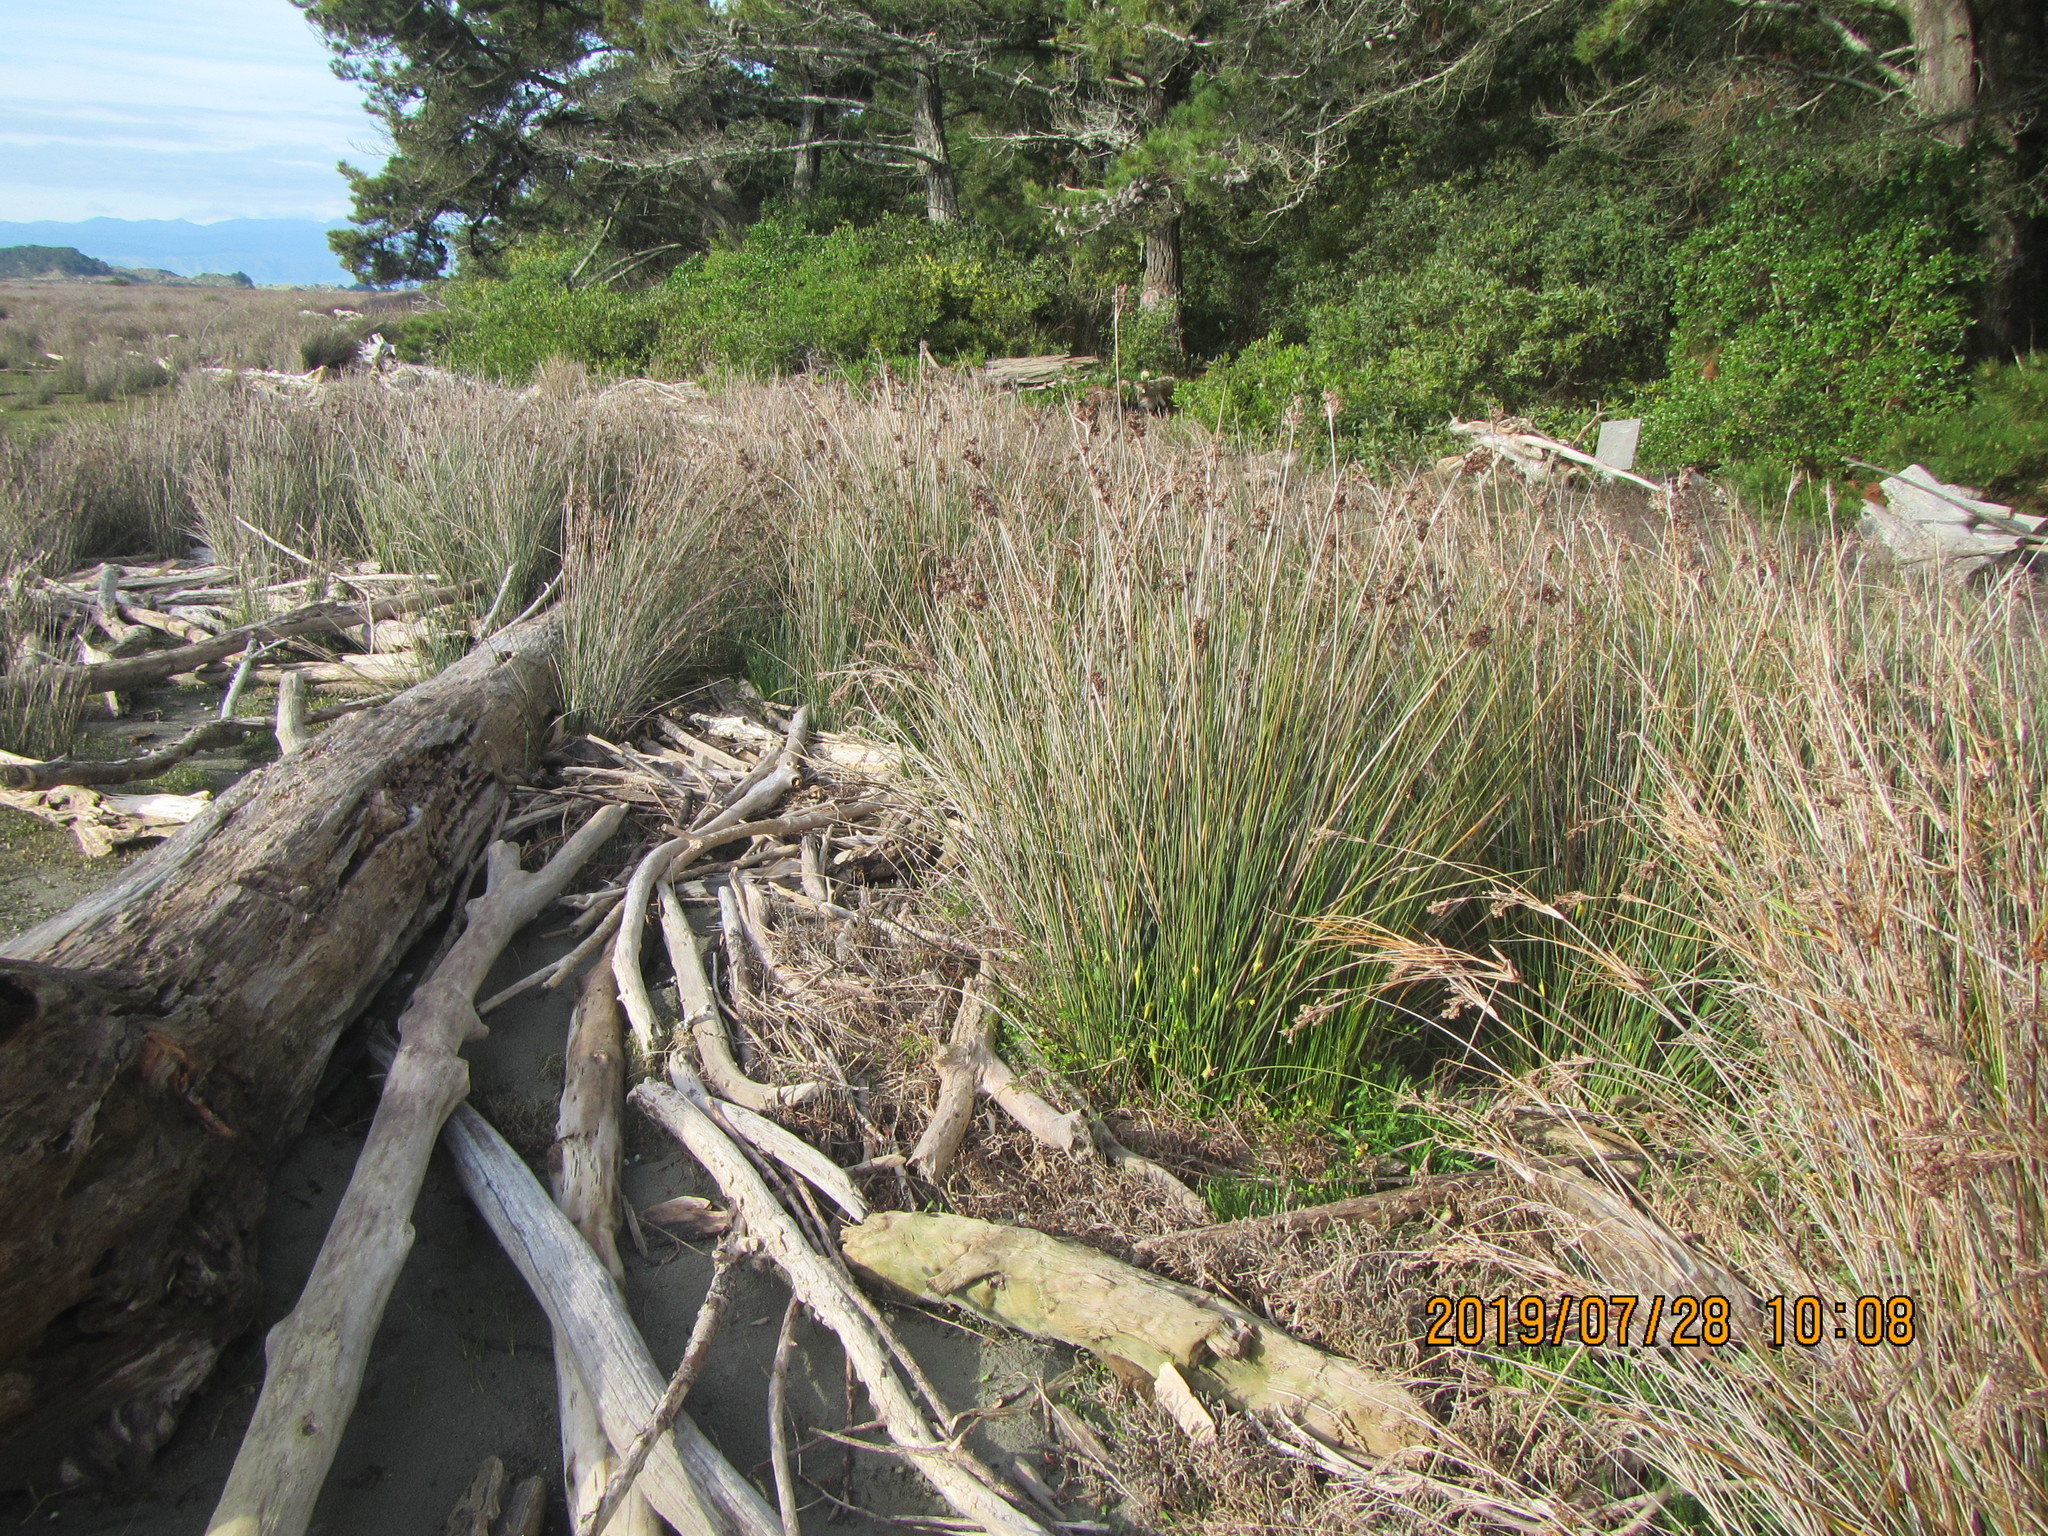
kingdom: Plantae
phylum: Tracheophyta
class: Magnoliopsida
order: Apiales
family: Apiaceae
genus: Apium
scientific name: Apium prostratum
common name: Prostrate marshwort
